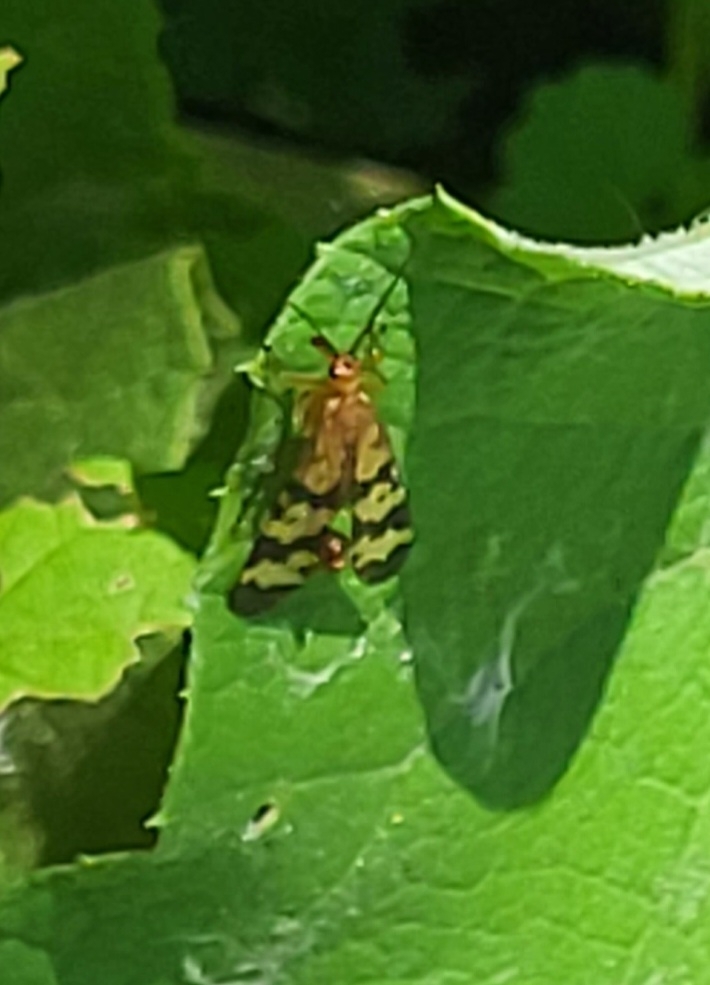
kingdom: Animalia
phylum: Arthropoda
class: Insecta
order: Mecoptera
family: Panorpidae
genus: Panorpa
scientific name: Panorpa insolens
